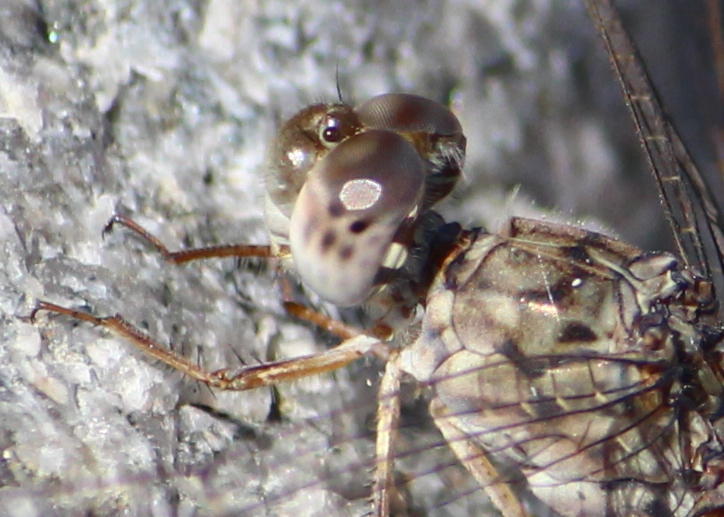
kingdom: Animalia
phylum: Arthropoda
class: Insecta
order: Odonata
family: Libellulidae
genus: Crocothemis
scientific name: Crocothemis saxicolor
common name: Granite scarlet
